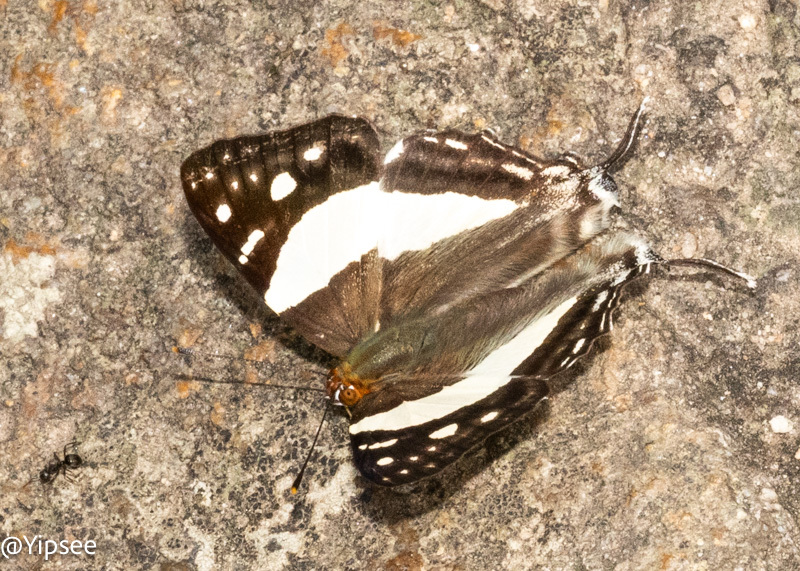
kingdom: Animalia
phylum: Arthropoda
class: Insecta
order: Lepidoptera
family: Lycaenidae
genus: Dodona
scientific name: Dodona deodata
